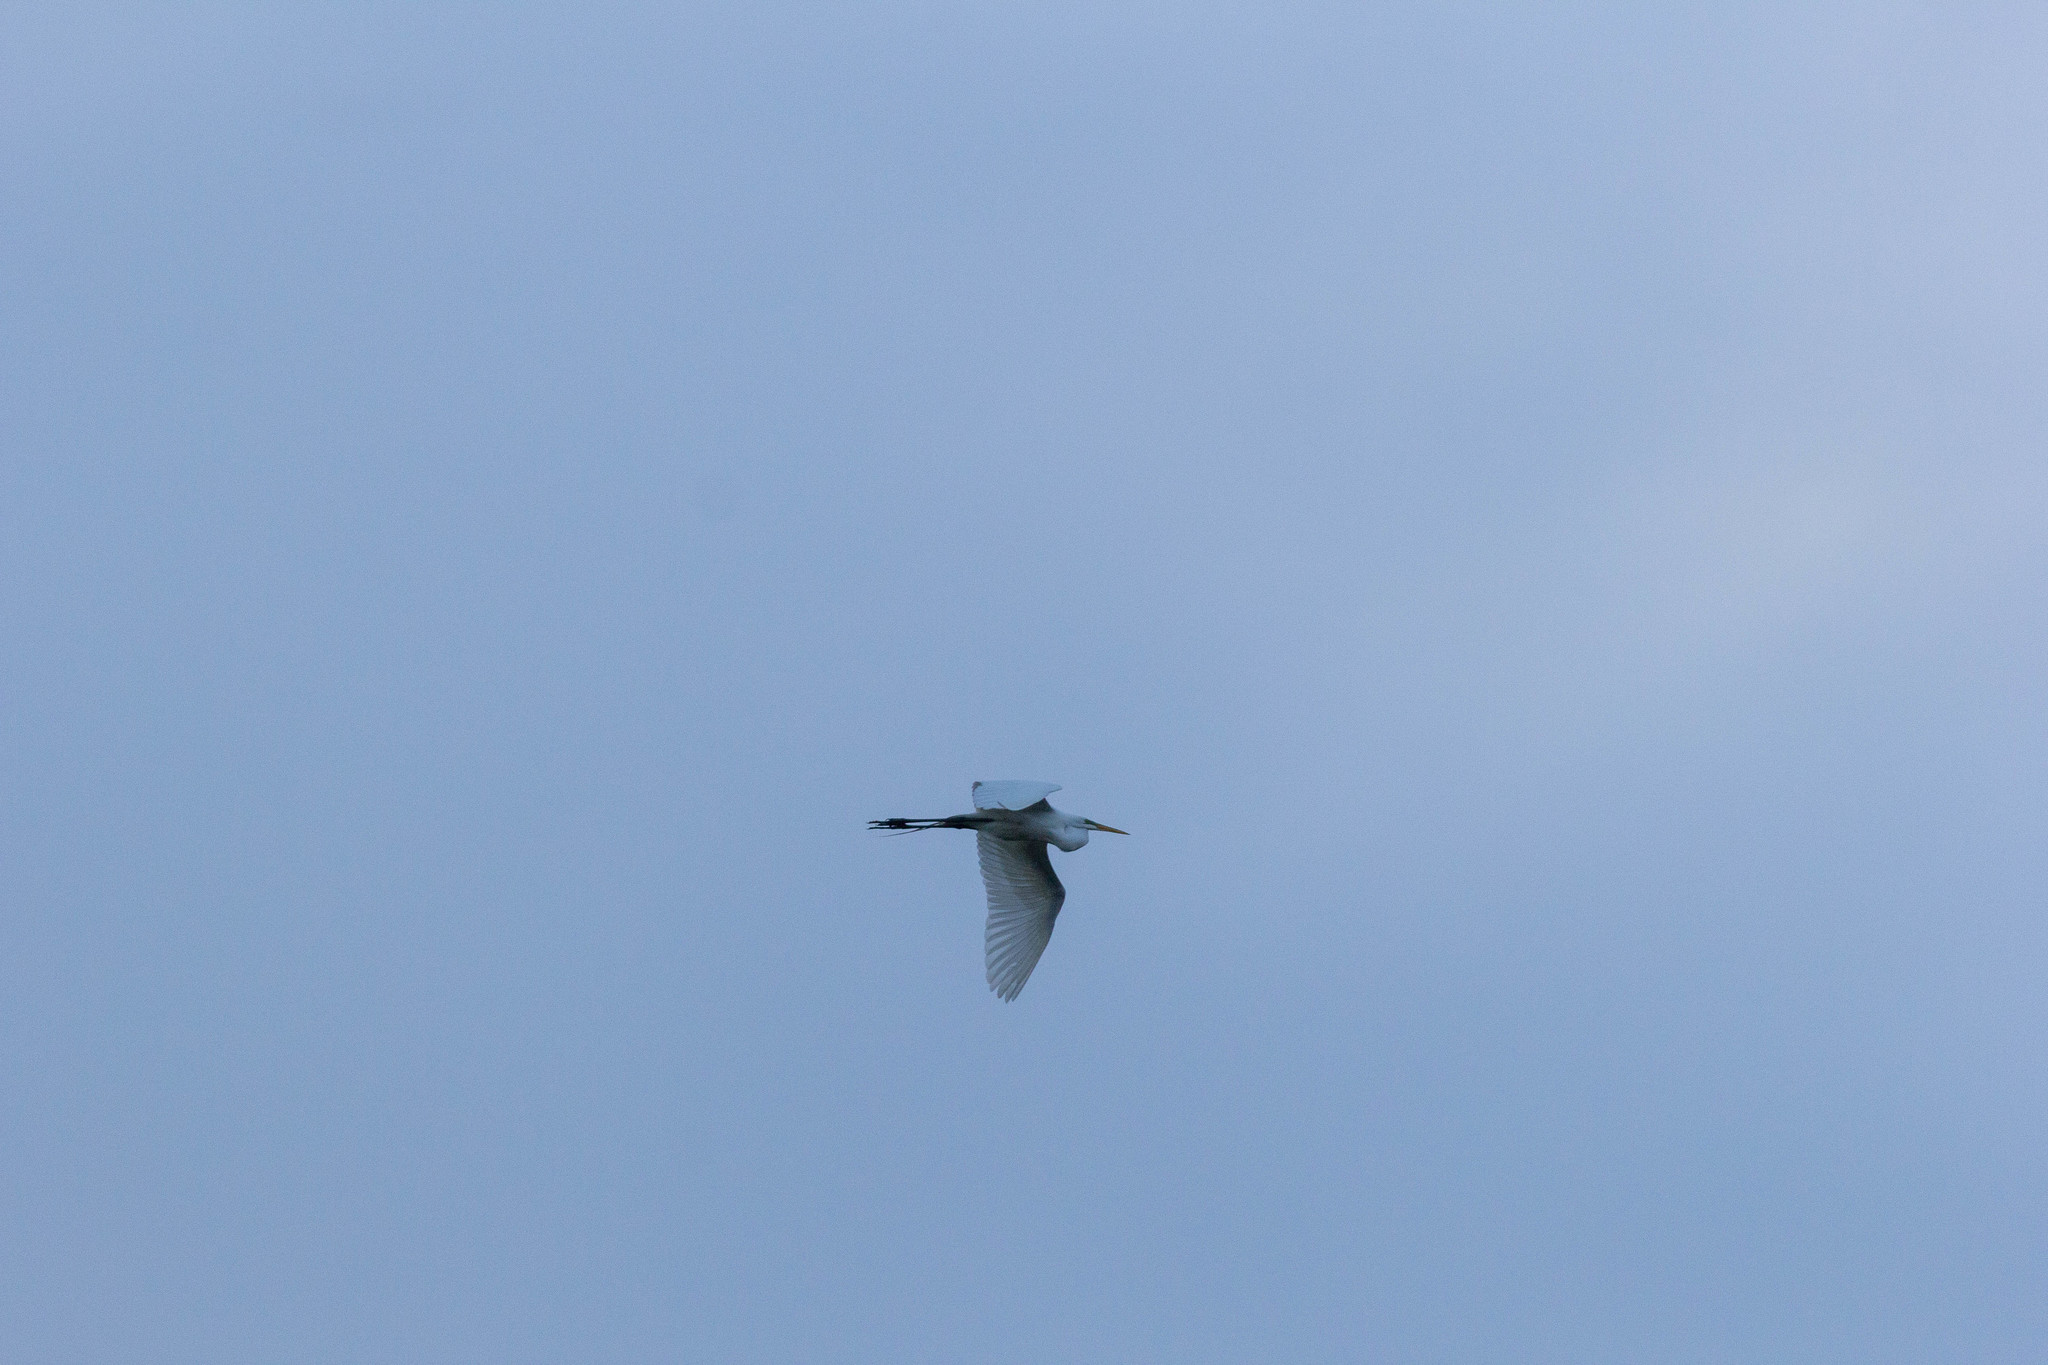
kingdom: Animalia
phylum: Chordata
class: Aves
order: Pelecaniformes
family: Ardeidae
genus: Ardea
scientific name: Ardea alba
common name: Great egret
